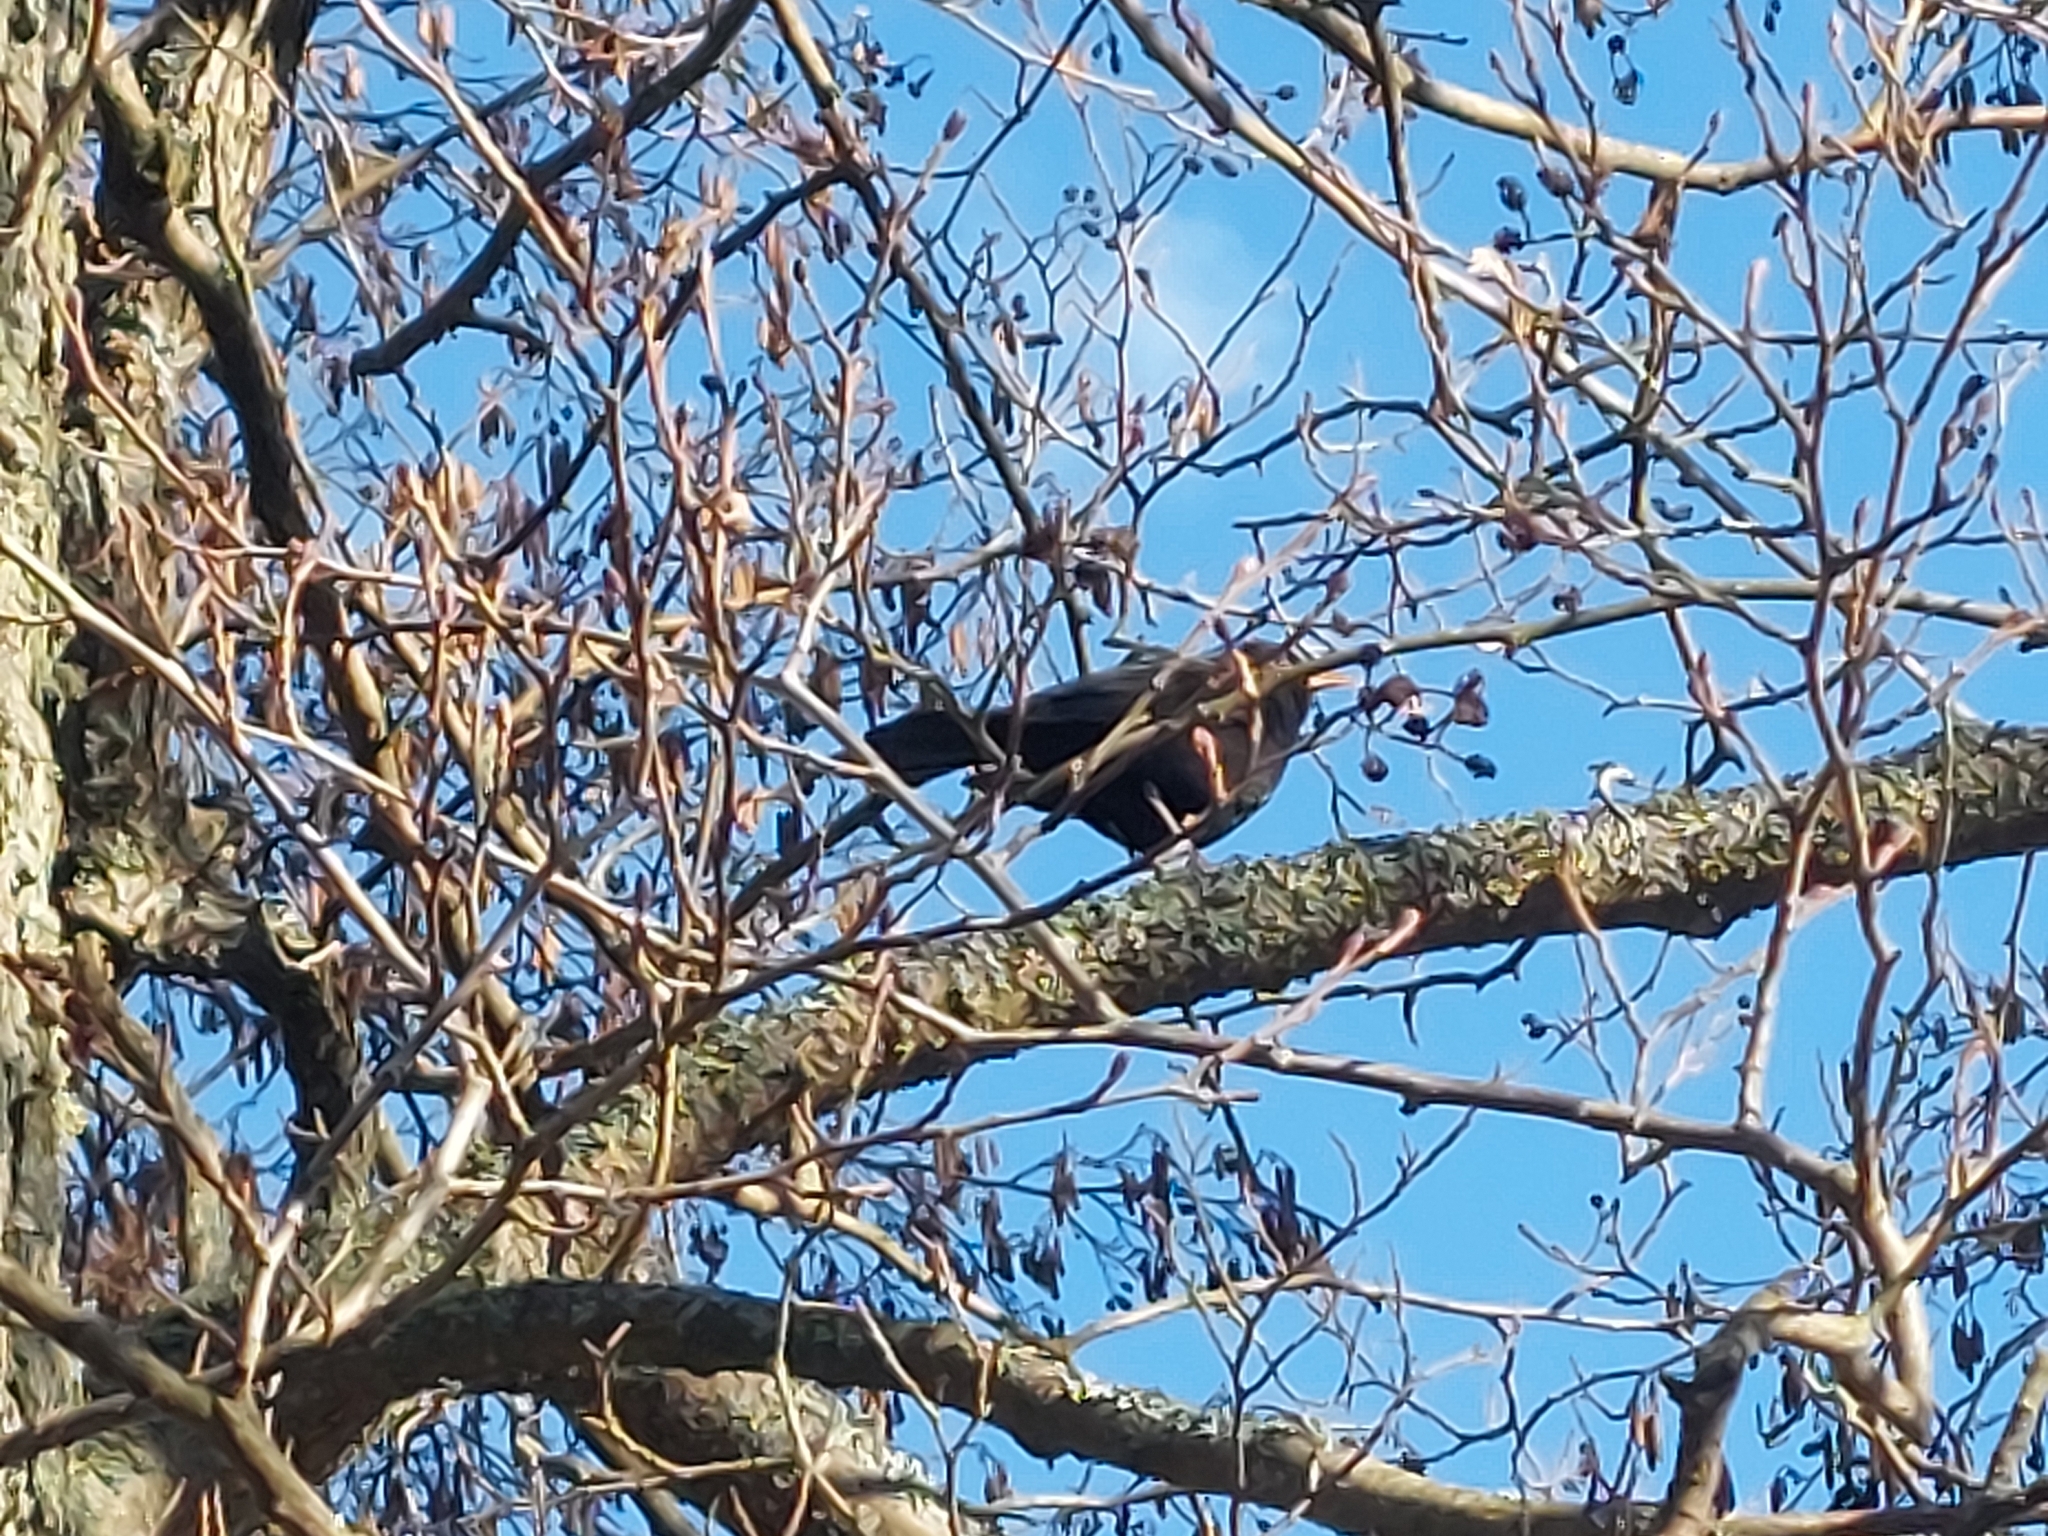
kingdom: Animalia
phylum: Chordata
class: Aves
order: Passeriformes
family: Turdidae
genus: Turdus
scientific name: Turdus merula
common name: Common blackbird
